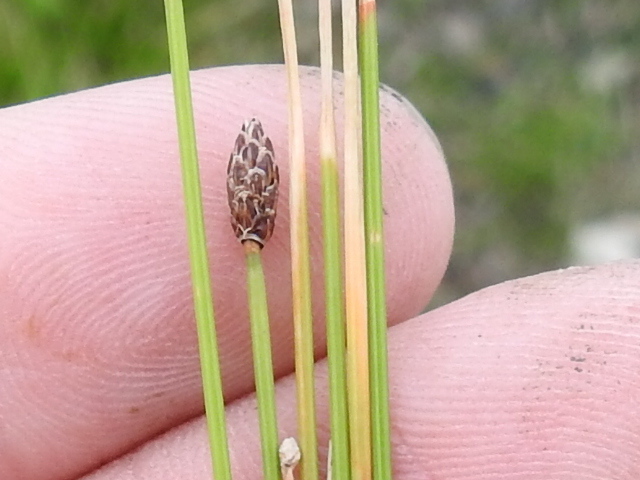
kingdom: Plantae
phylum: Tracheophyta
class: Liliopsida
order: Poales
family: Cyperaceae
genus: Eleocharis
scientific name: Eleocharis palustris
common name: Common spike-rush
